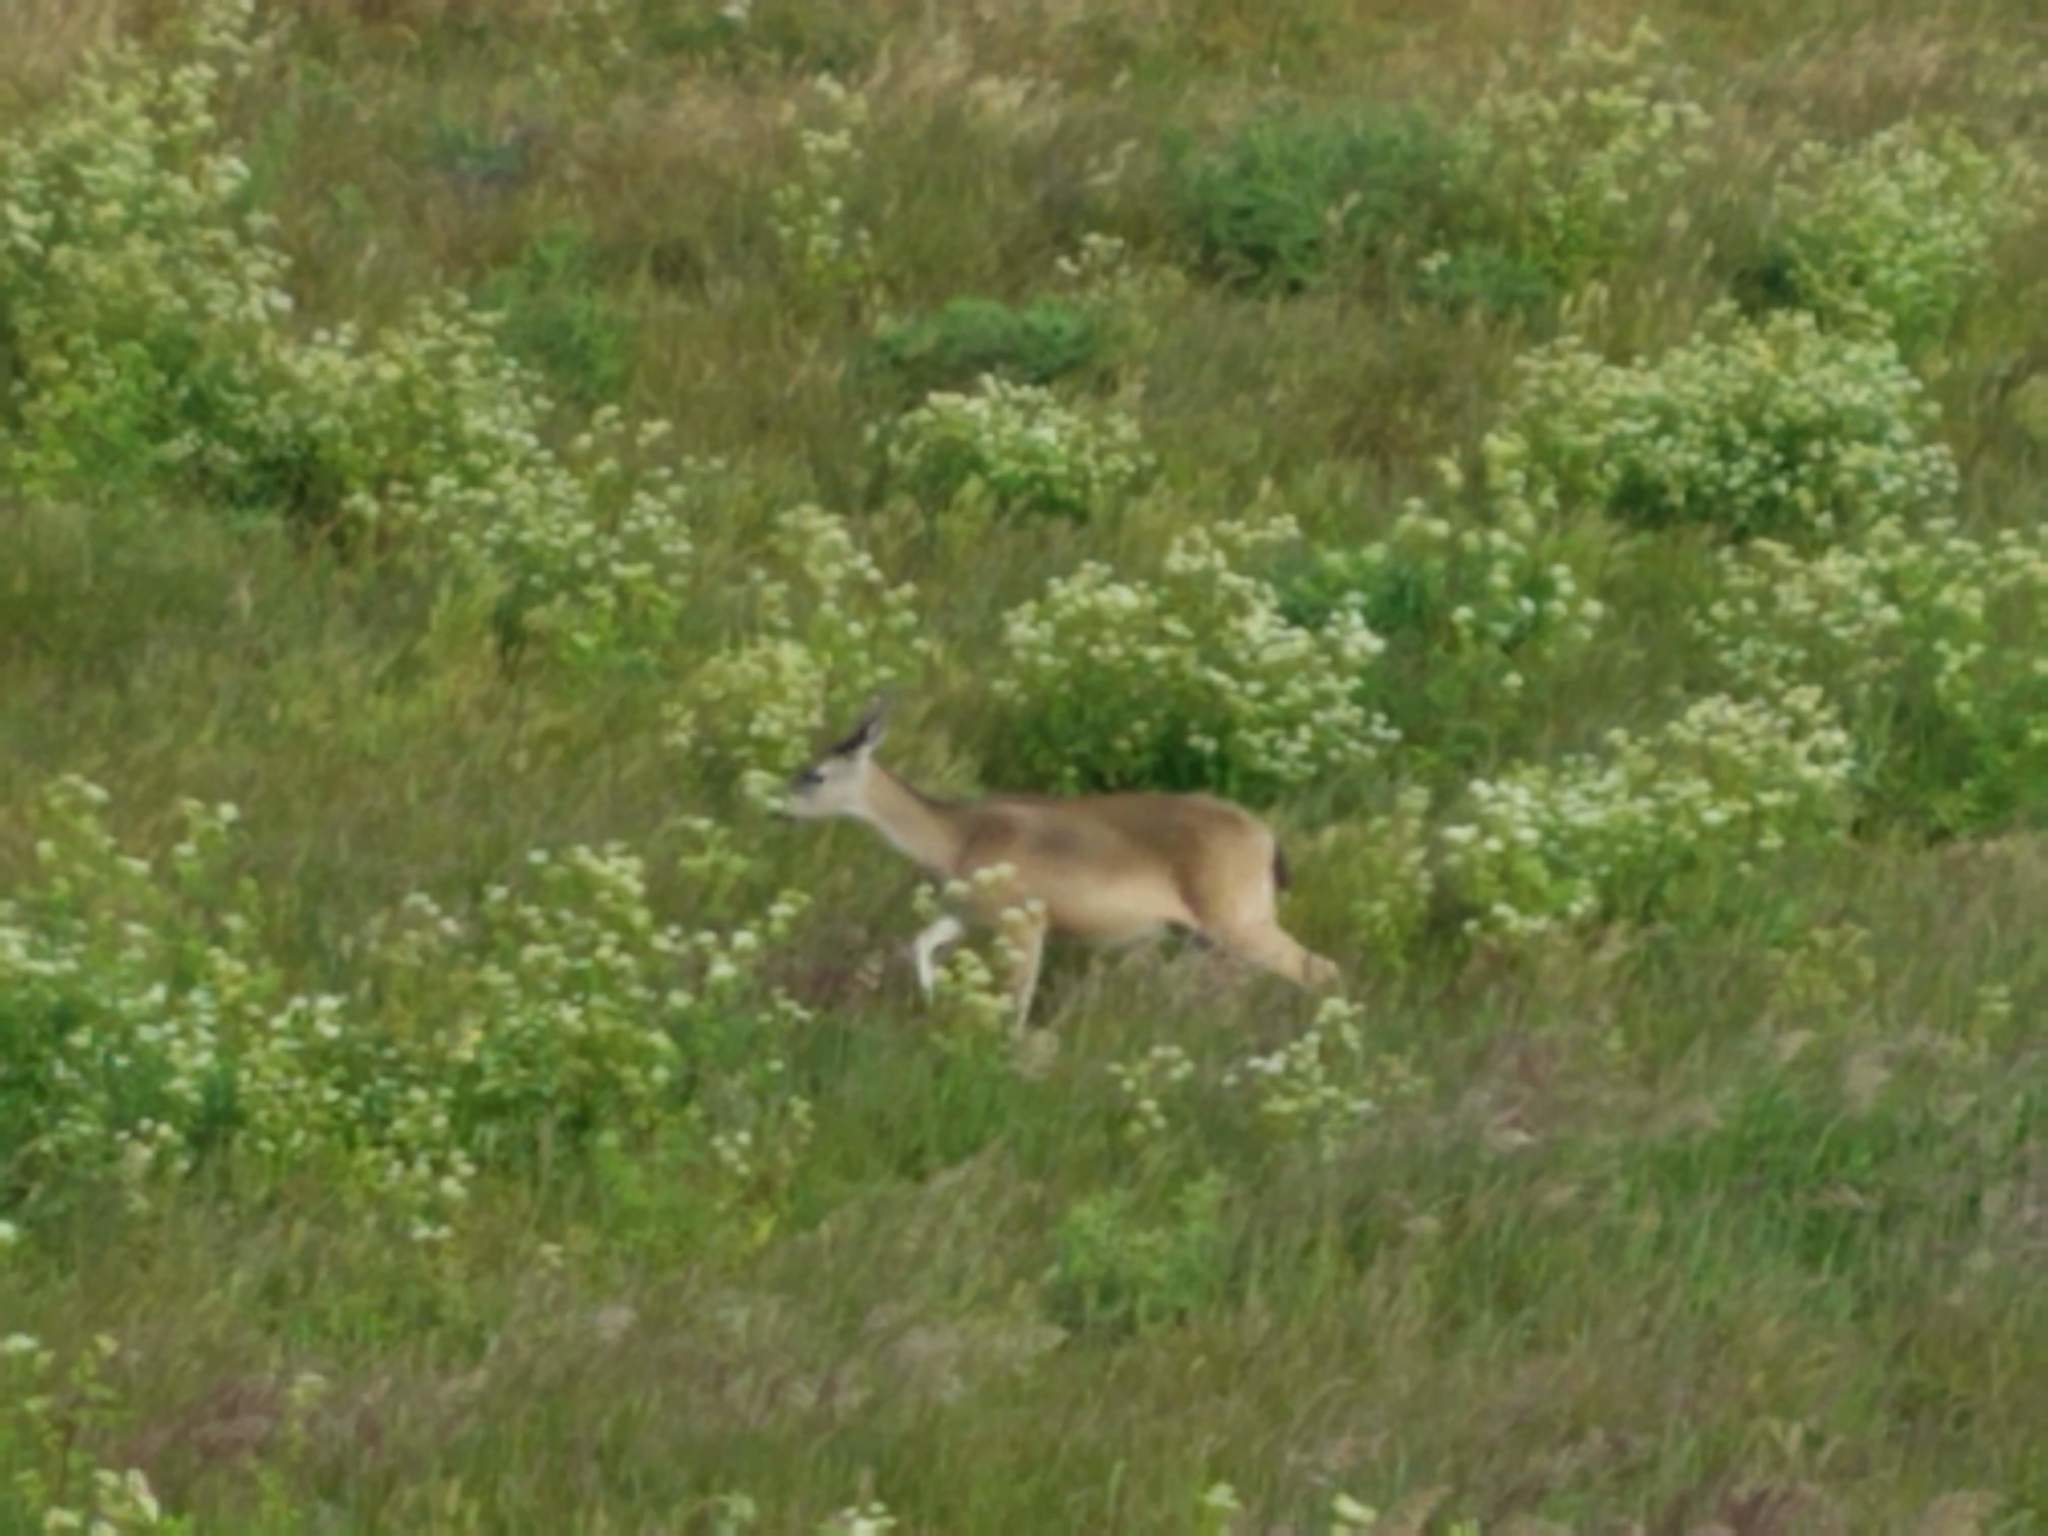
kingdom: Animalia
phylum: Chordata
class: Mammalia
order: Artiodactyla
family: Cervidae
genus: Odocoileus
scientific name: Odocoileus hemionus
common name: Mule deer
